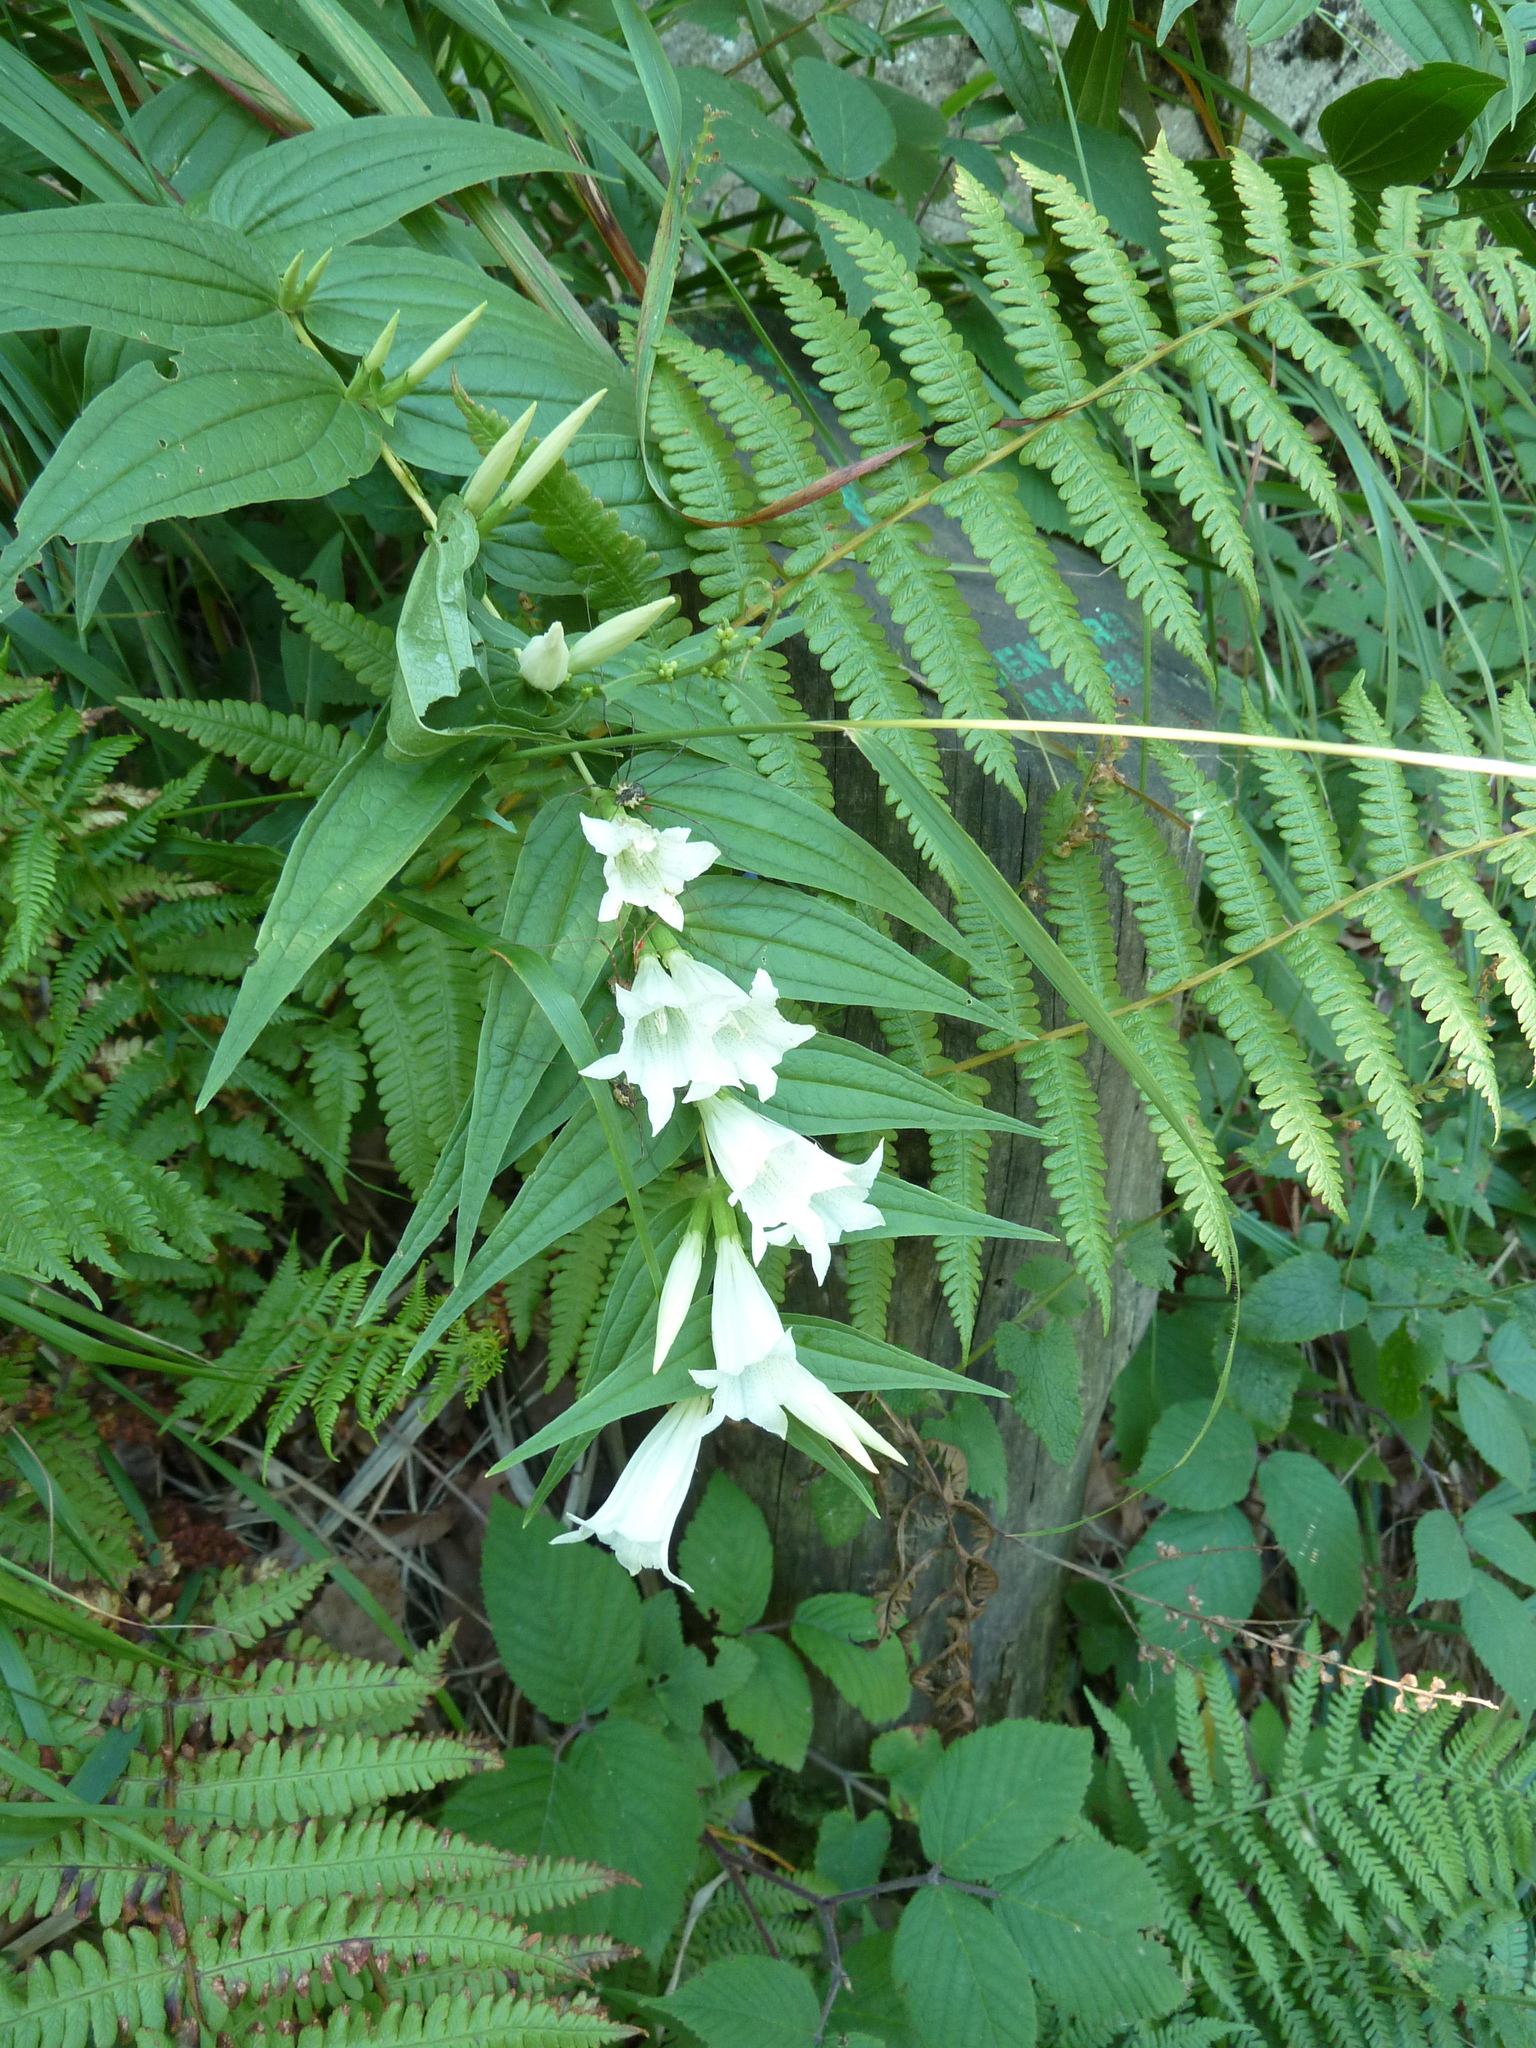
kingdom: Plantae
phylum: Tracheophyta
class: Magnoliopsida
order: Gentianales
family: Gentianaceae
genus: Gentiana
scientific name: Gentiana asclepiadea
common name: Willow gentian
